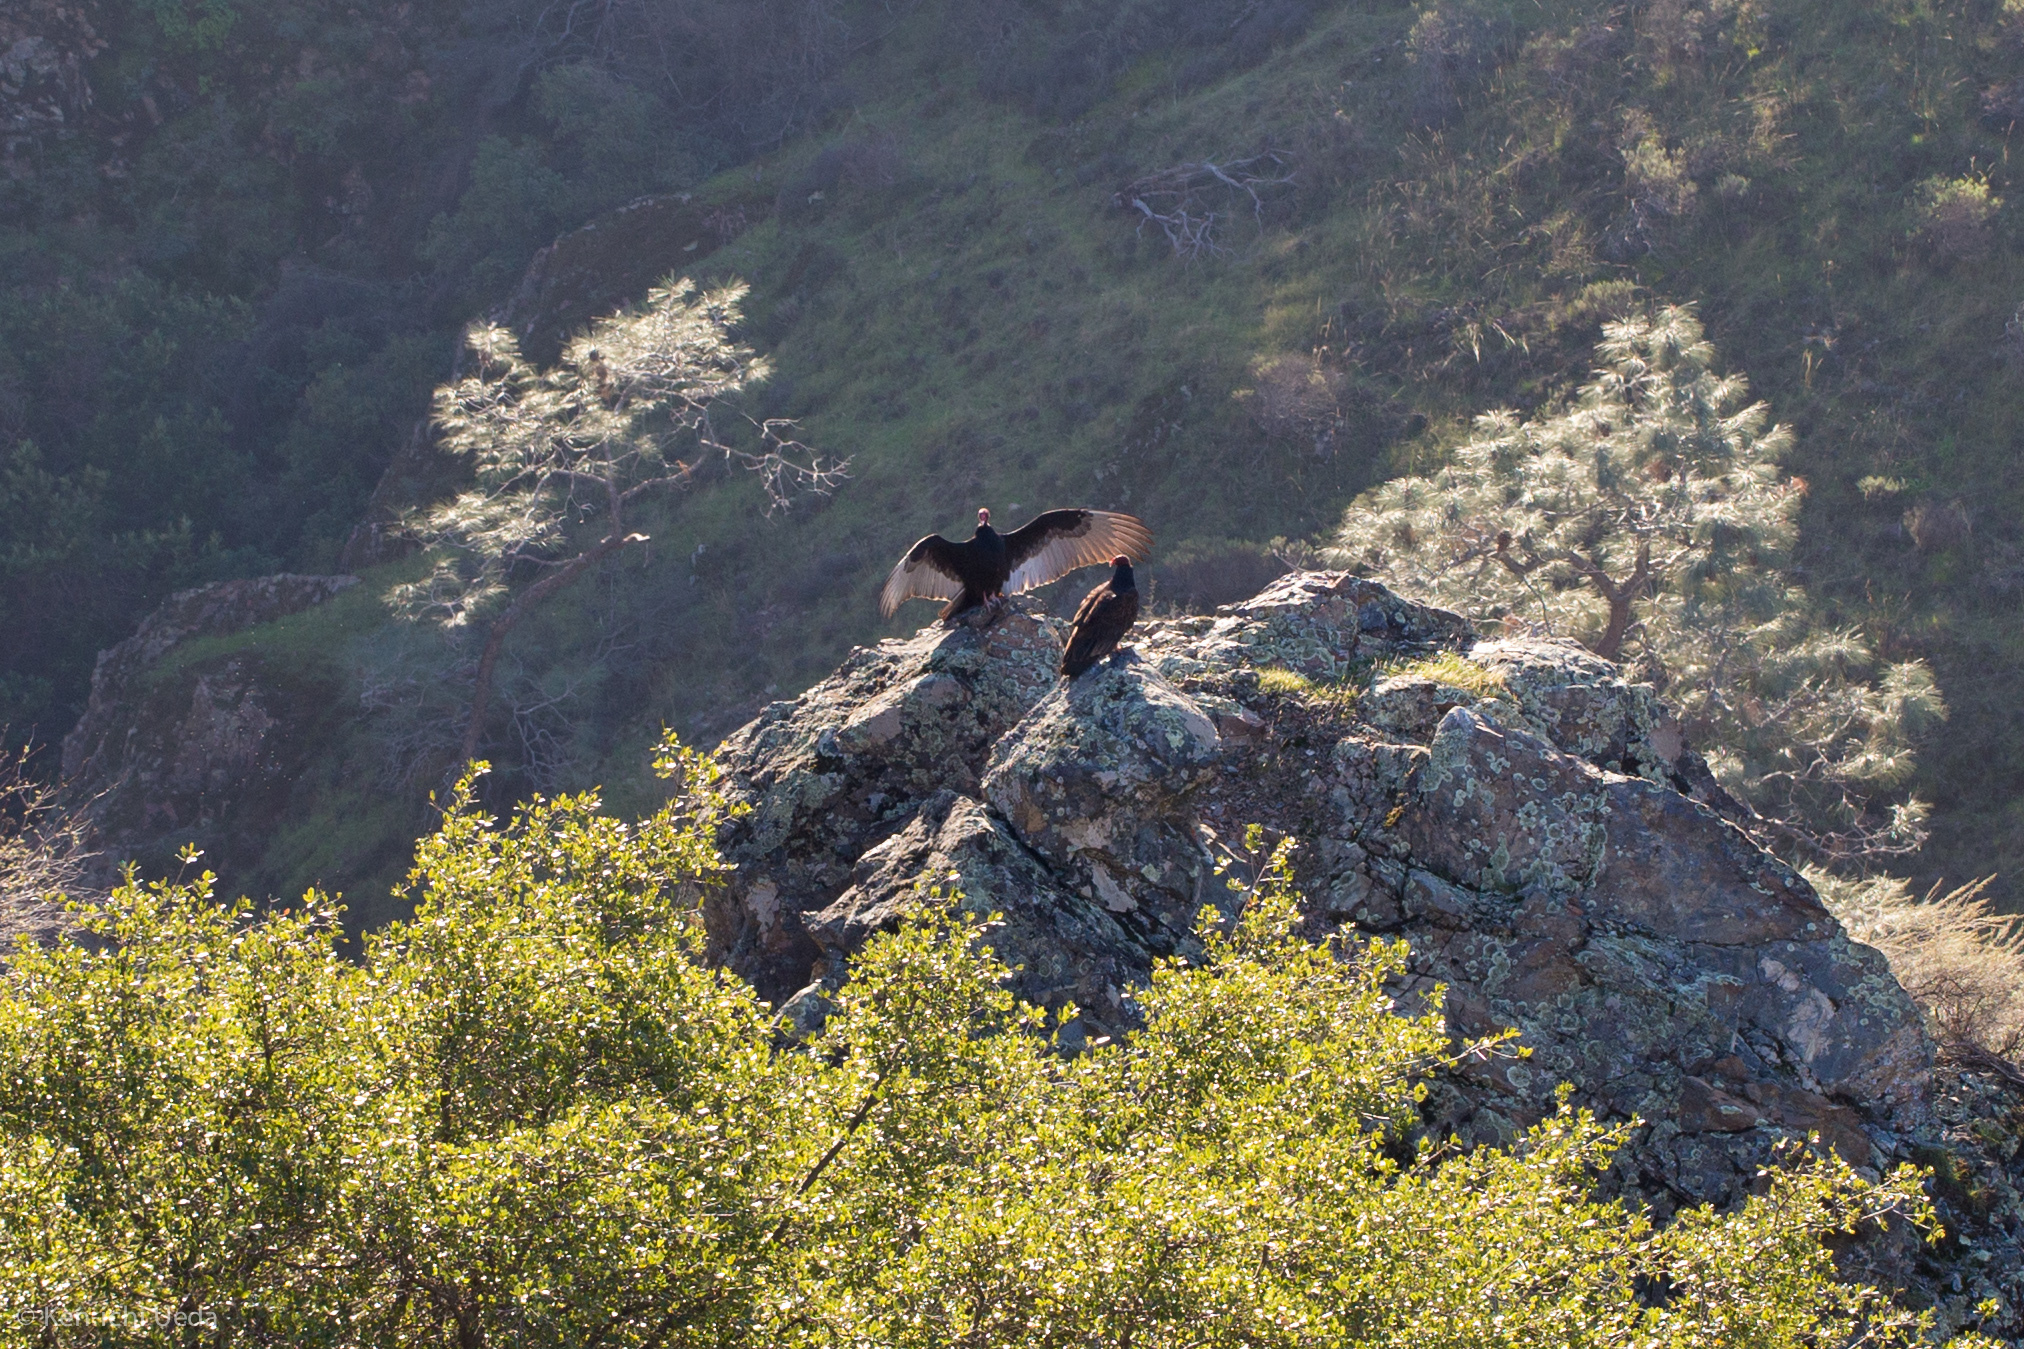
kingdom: Animalia
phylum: Chordata
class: Aves
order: Accipitriformes
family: Cathartidae
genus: Cathartes
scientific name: Cathartes aura
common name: Turkey vulture
